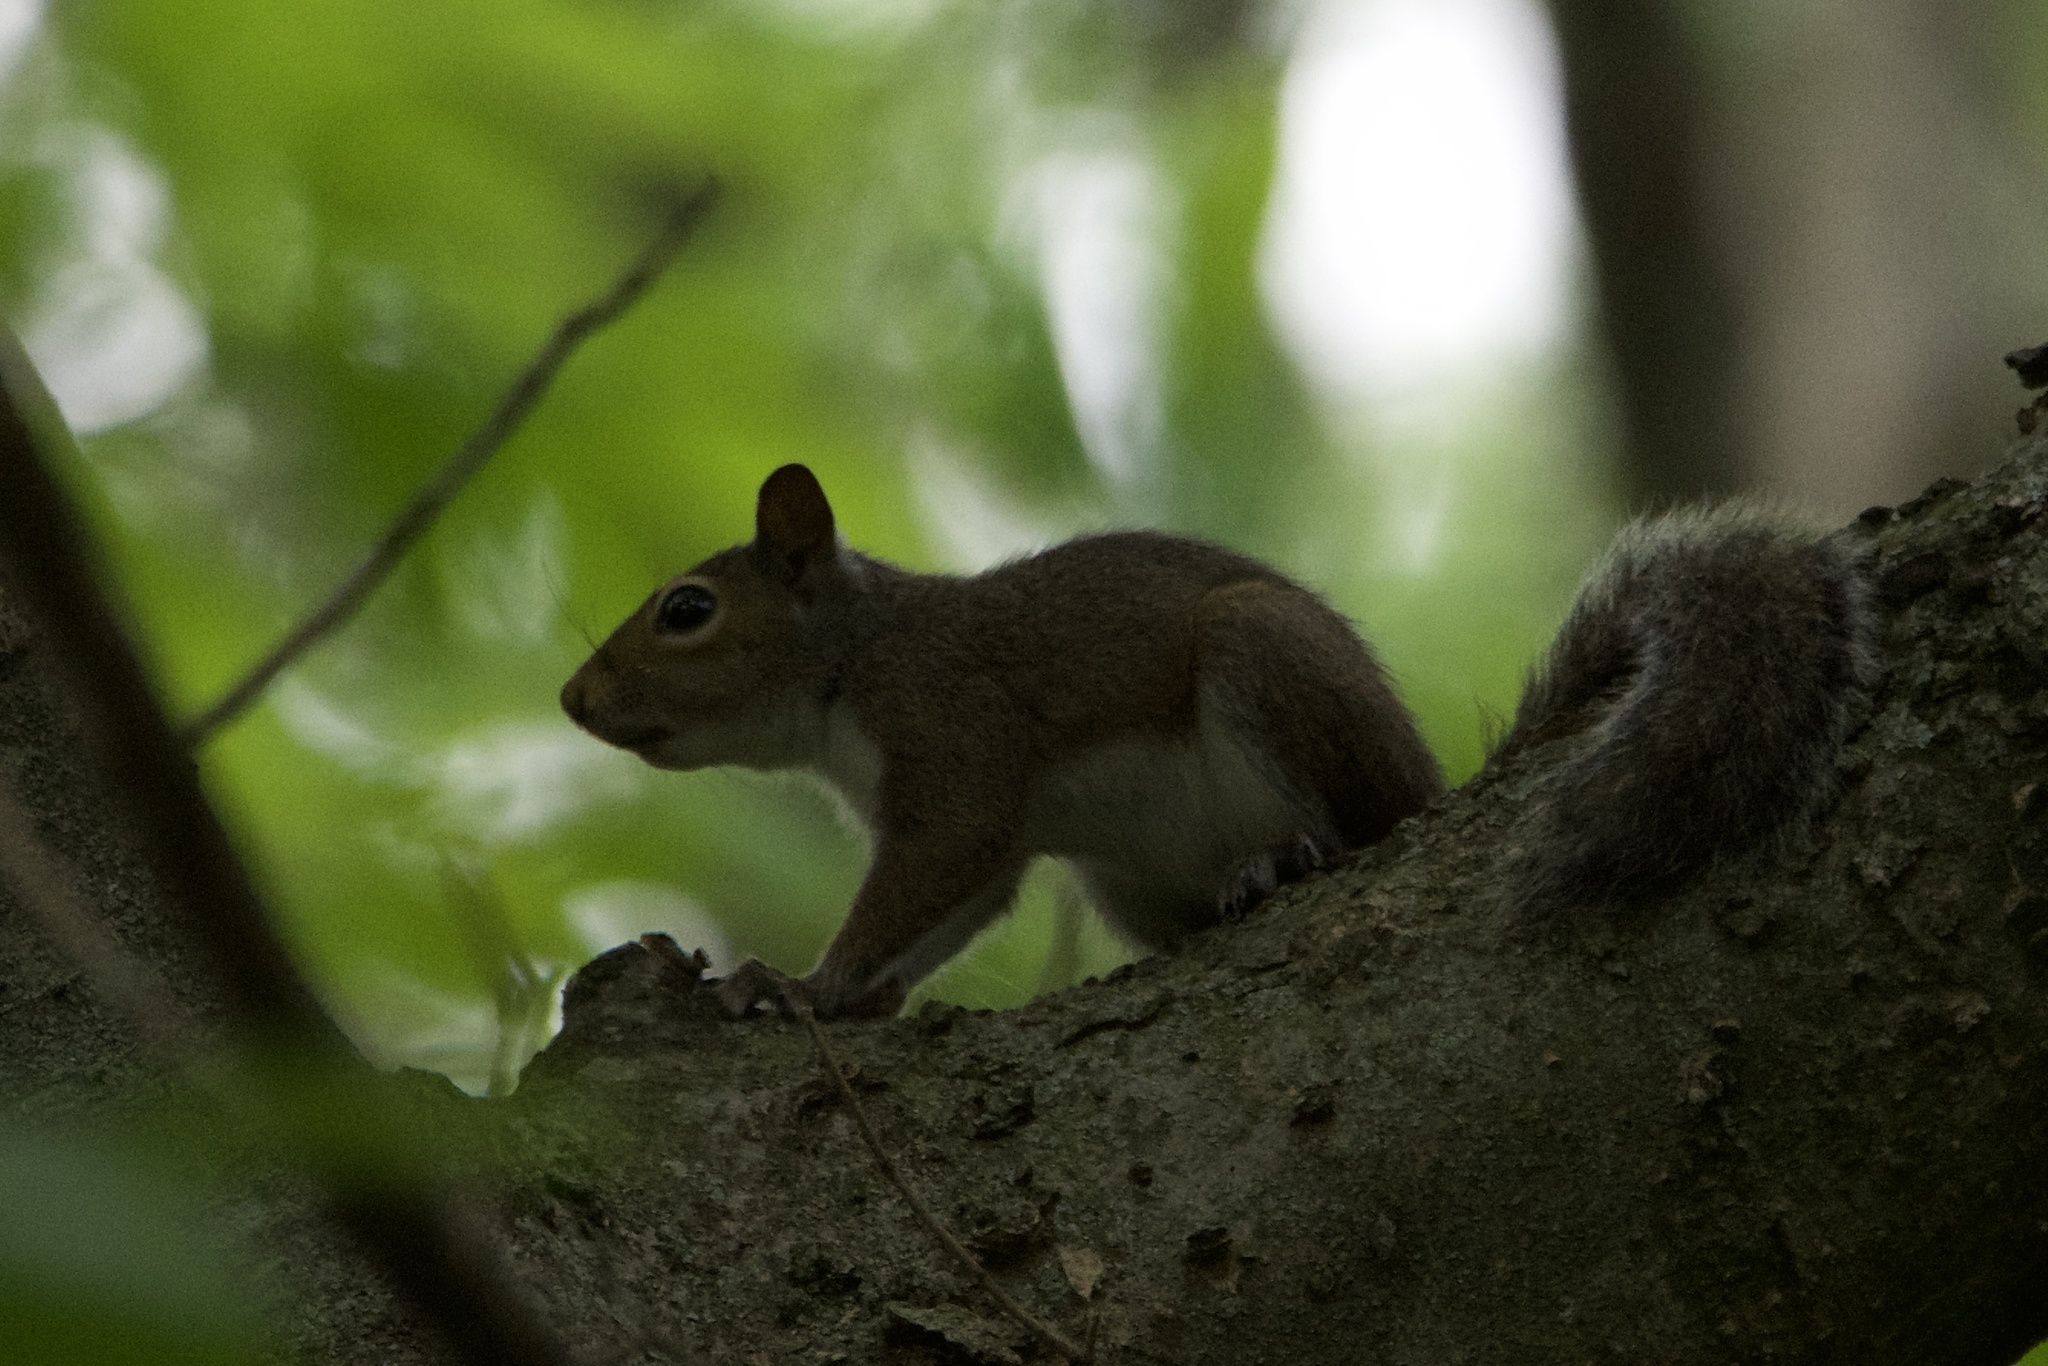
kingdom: Animalia
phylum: Chordata
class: Mammalia
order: Rodentia
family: Sciuridae
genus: Sciurus
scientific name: Sciurus carolinensis
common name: Eastern gray squirrel
